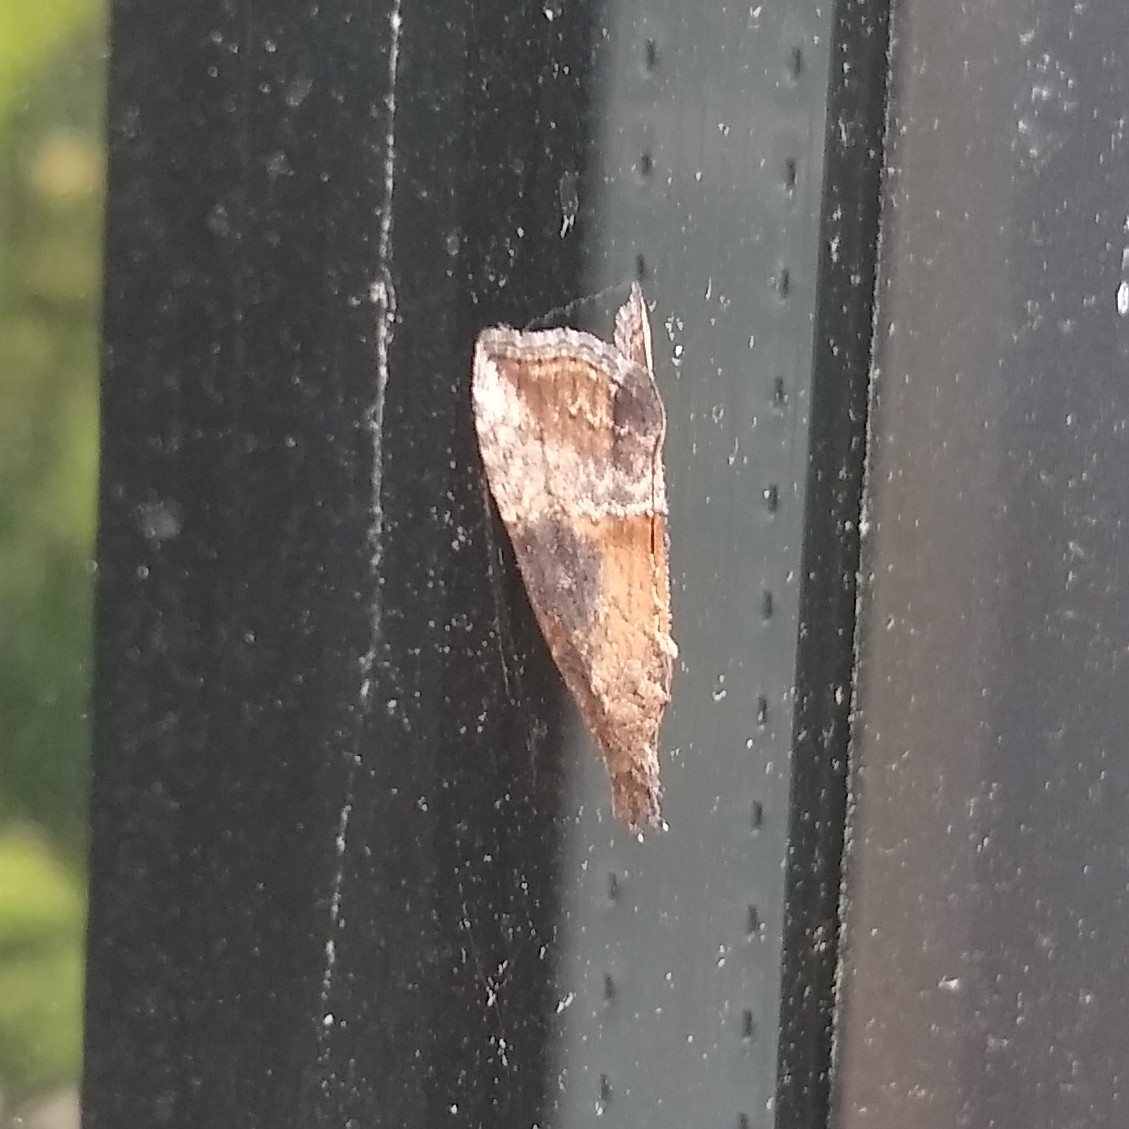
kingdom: Animalia
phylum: Arthropoda
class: Insecta
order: Lepidoptera
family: Erebidae
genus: Hypena
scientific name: Hypena scabra
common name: Green cloverworm
